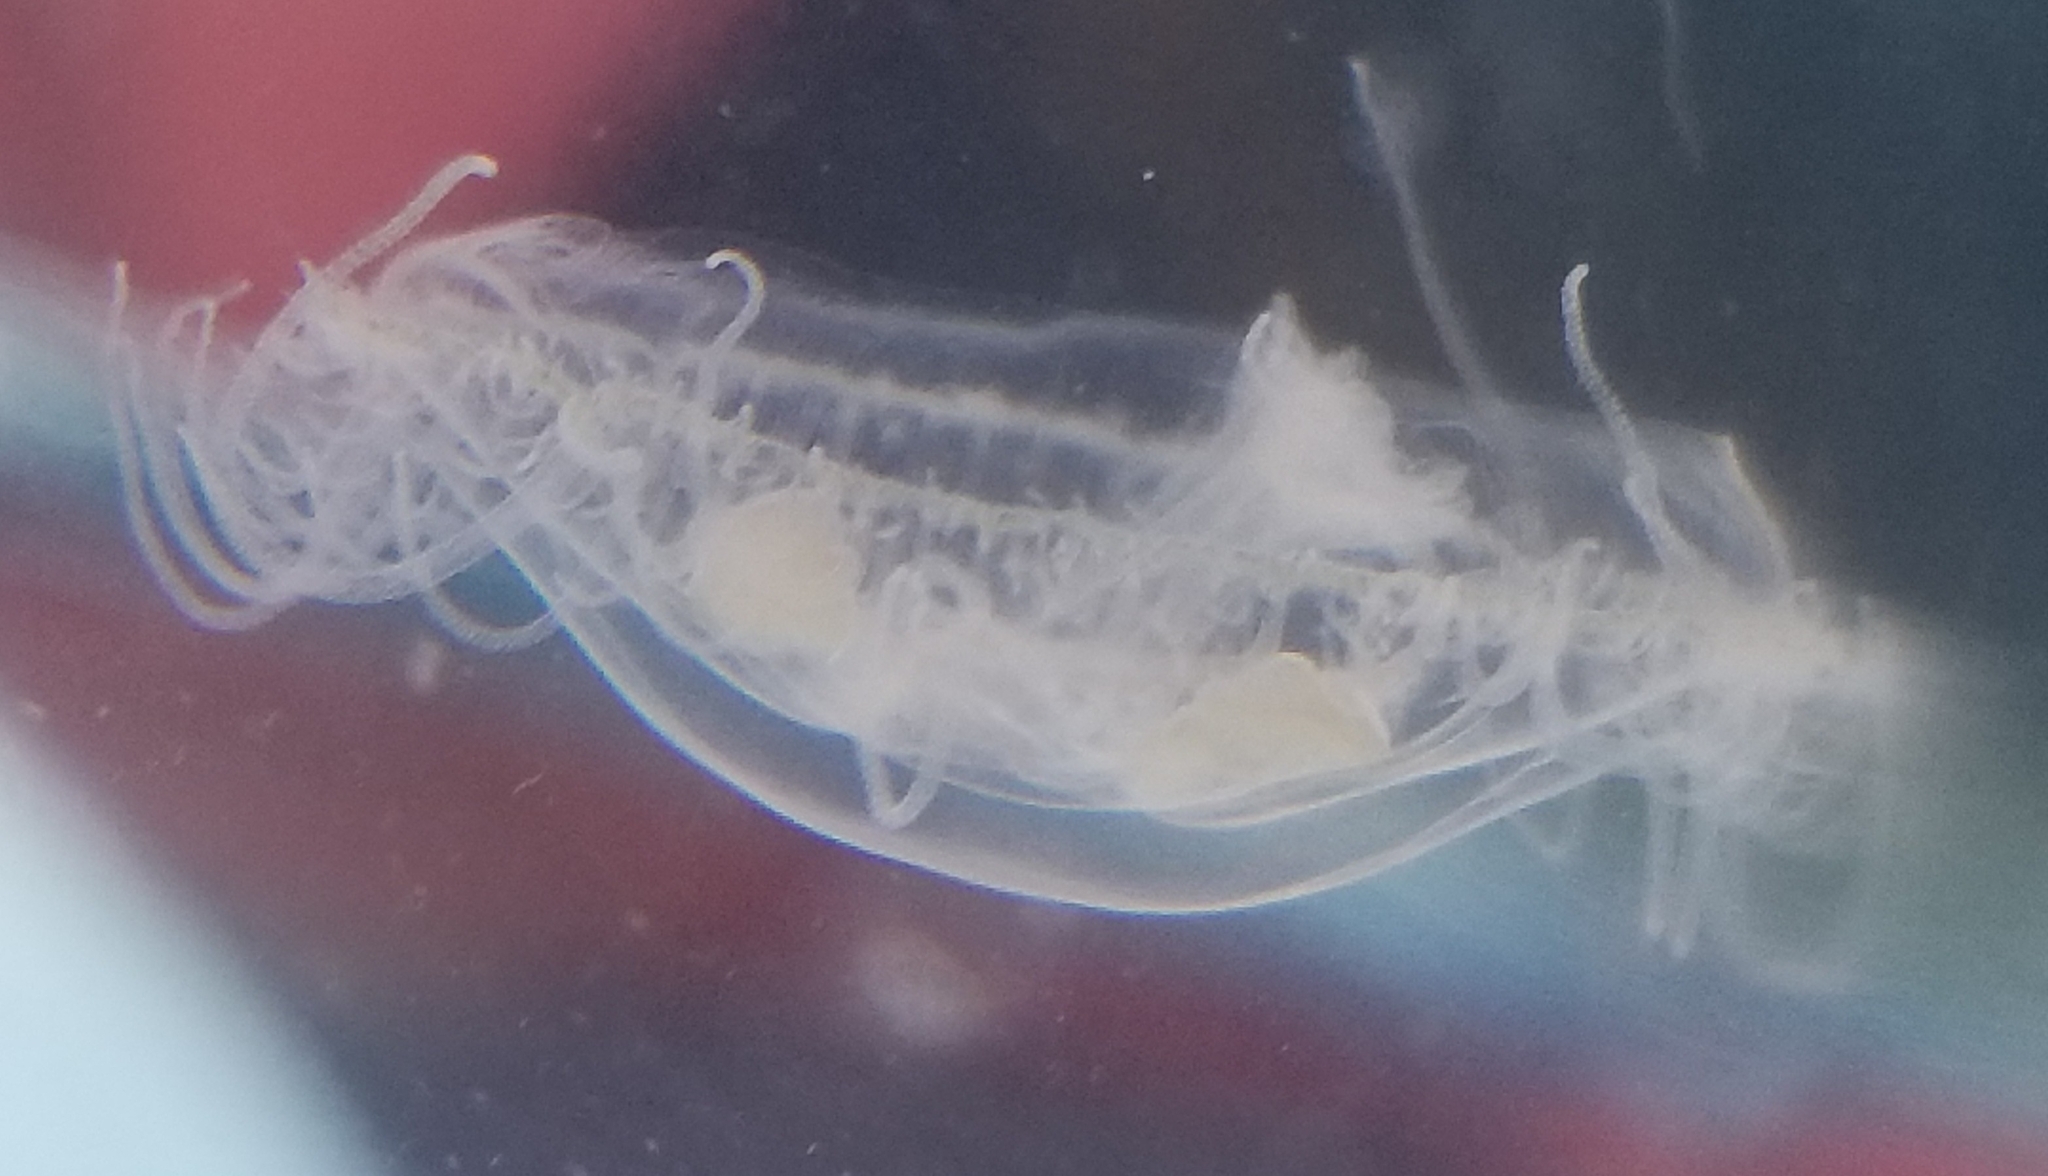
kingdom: Animalia
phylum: Cnidaria
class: Hydrozoa
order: Limnomedusae
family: Olindiidae
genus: Craspedacusta
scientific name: Craspedacusta sowerbii
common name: Freshwater jellyfish
